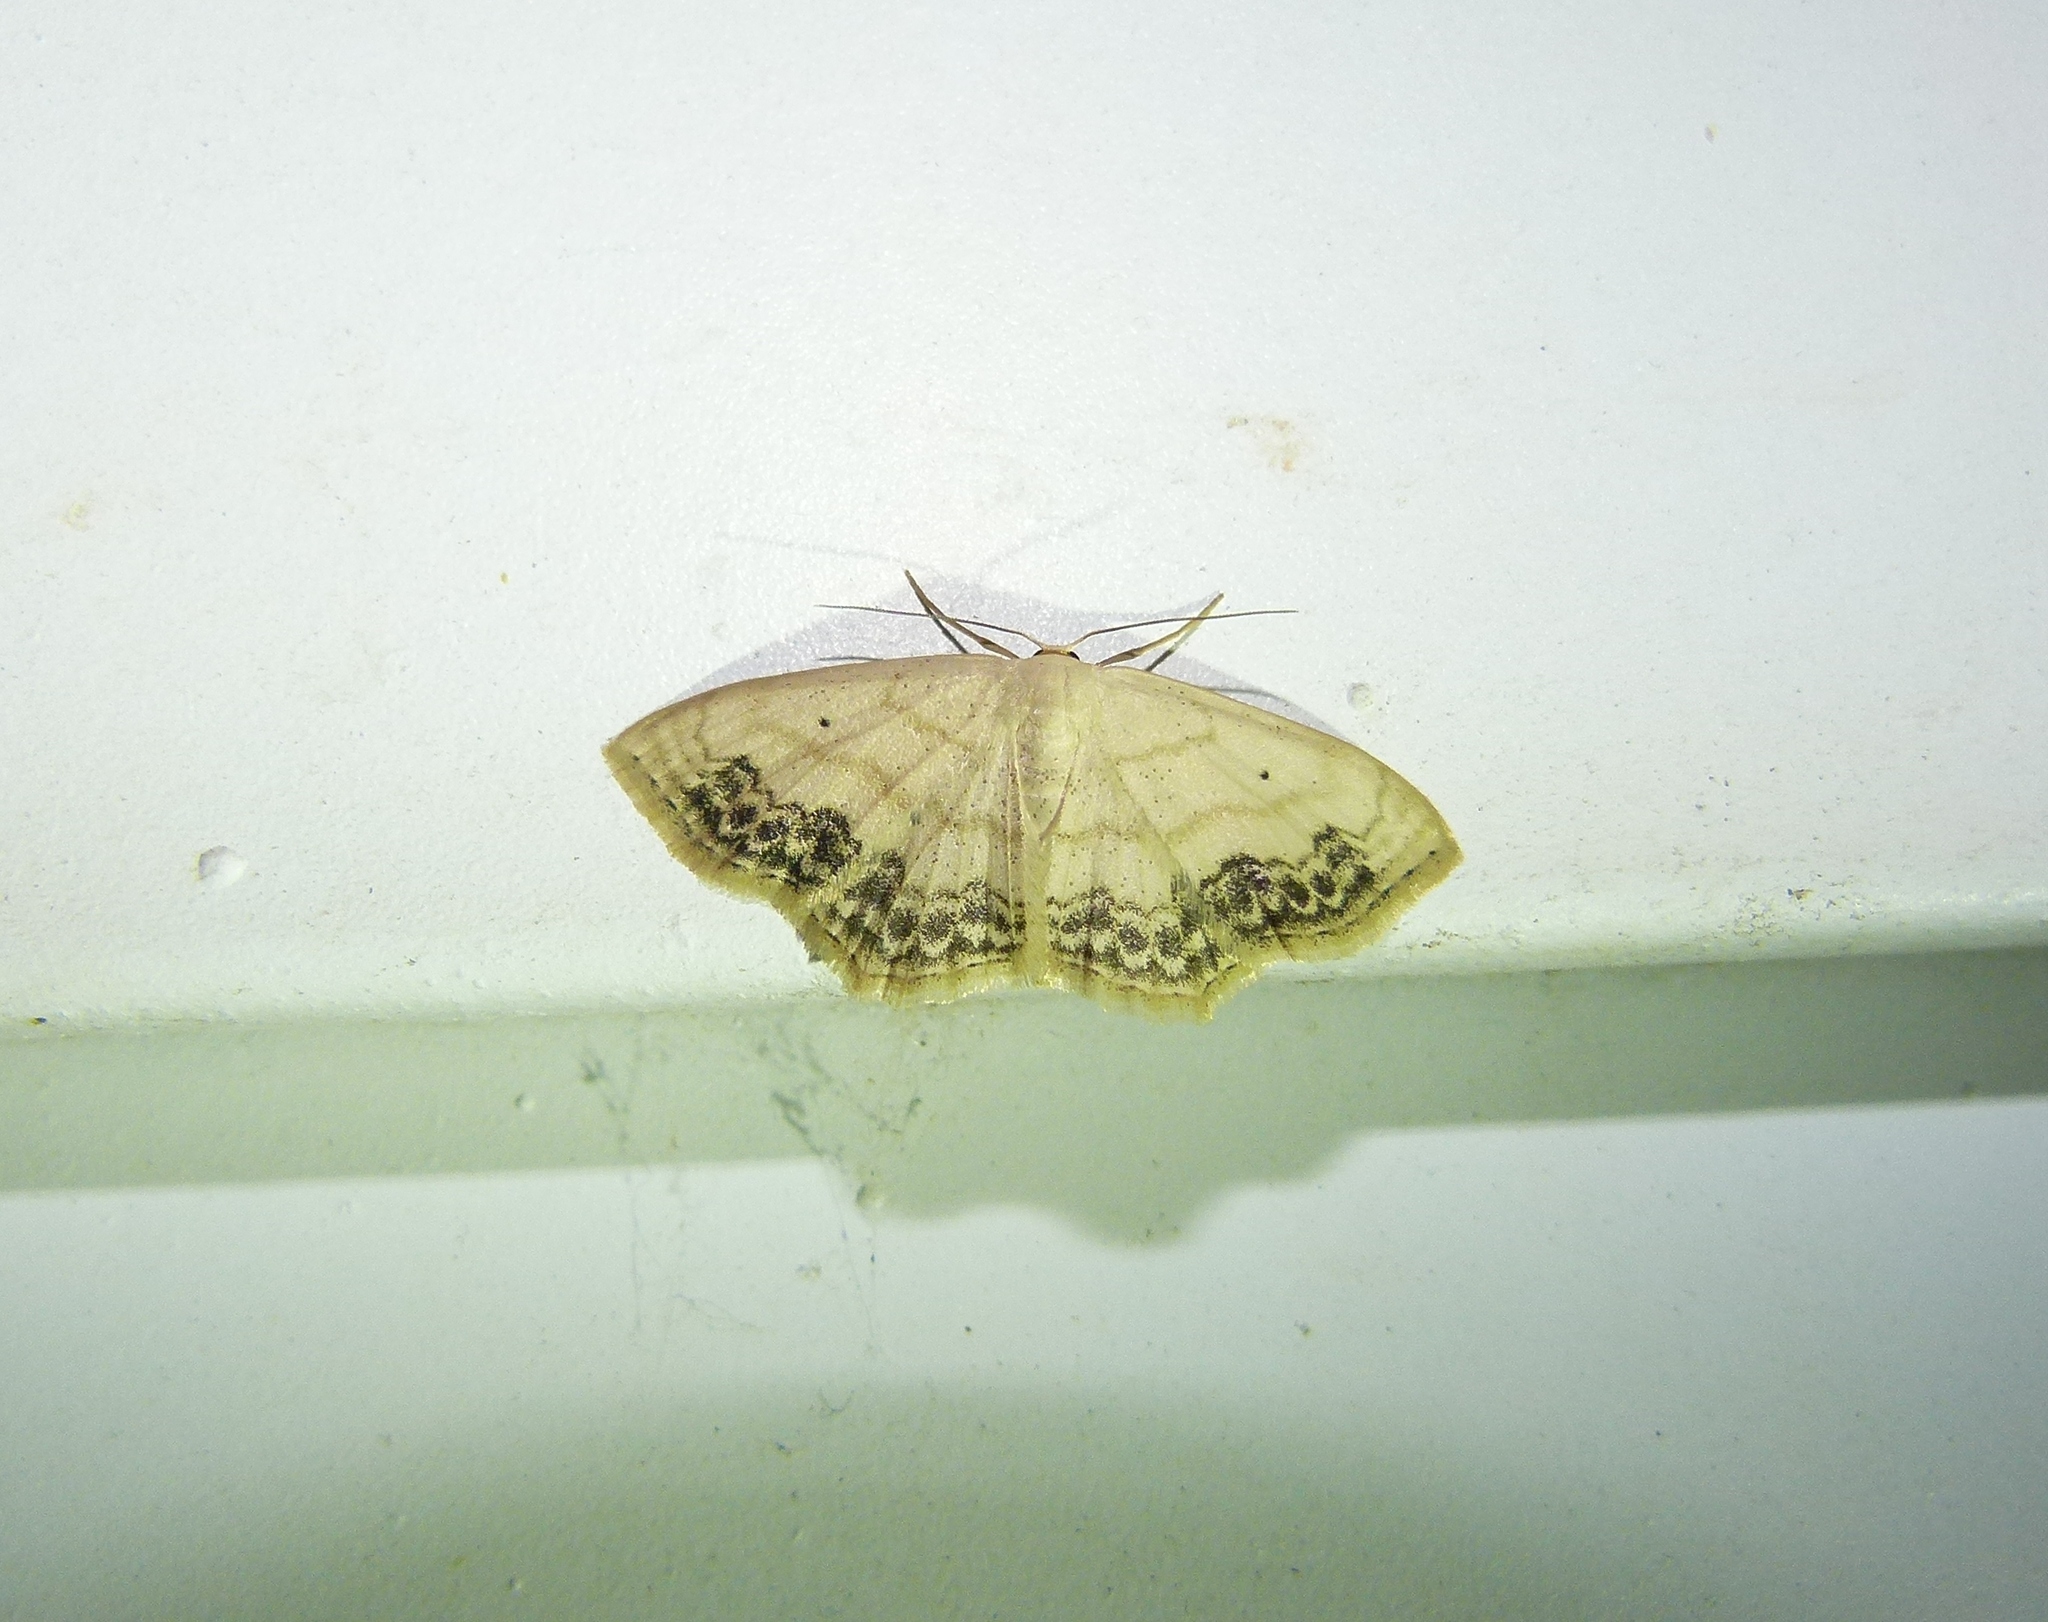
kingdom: Animalia
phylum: Arthropoda
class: Insecta
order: Lepidoptera
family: Geometridae
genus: Scopula
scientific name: Scopula limboundata
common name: Large lace border
